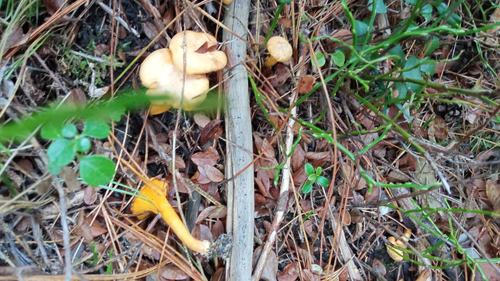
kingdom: Fungi
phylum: Basidiomycota
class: Agaricomycetes
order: Cantharellales
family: Hydnaceae
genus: Cantharellus
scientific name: Cantharellus cibarius
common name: Chanterelle
